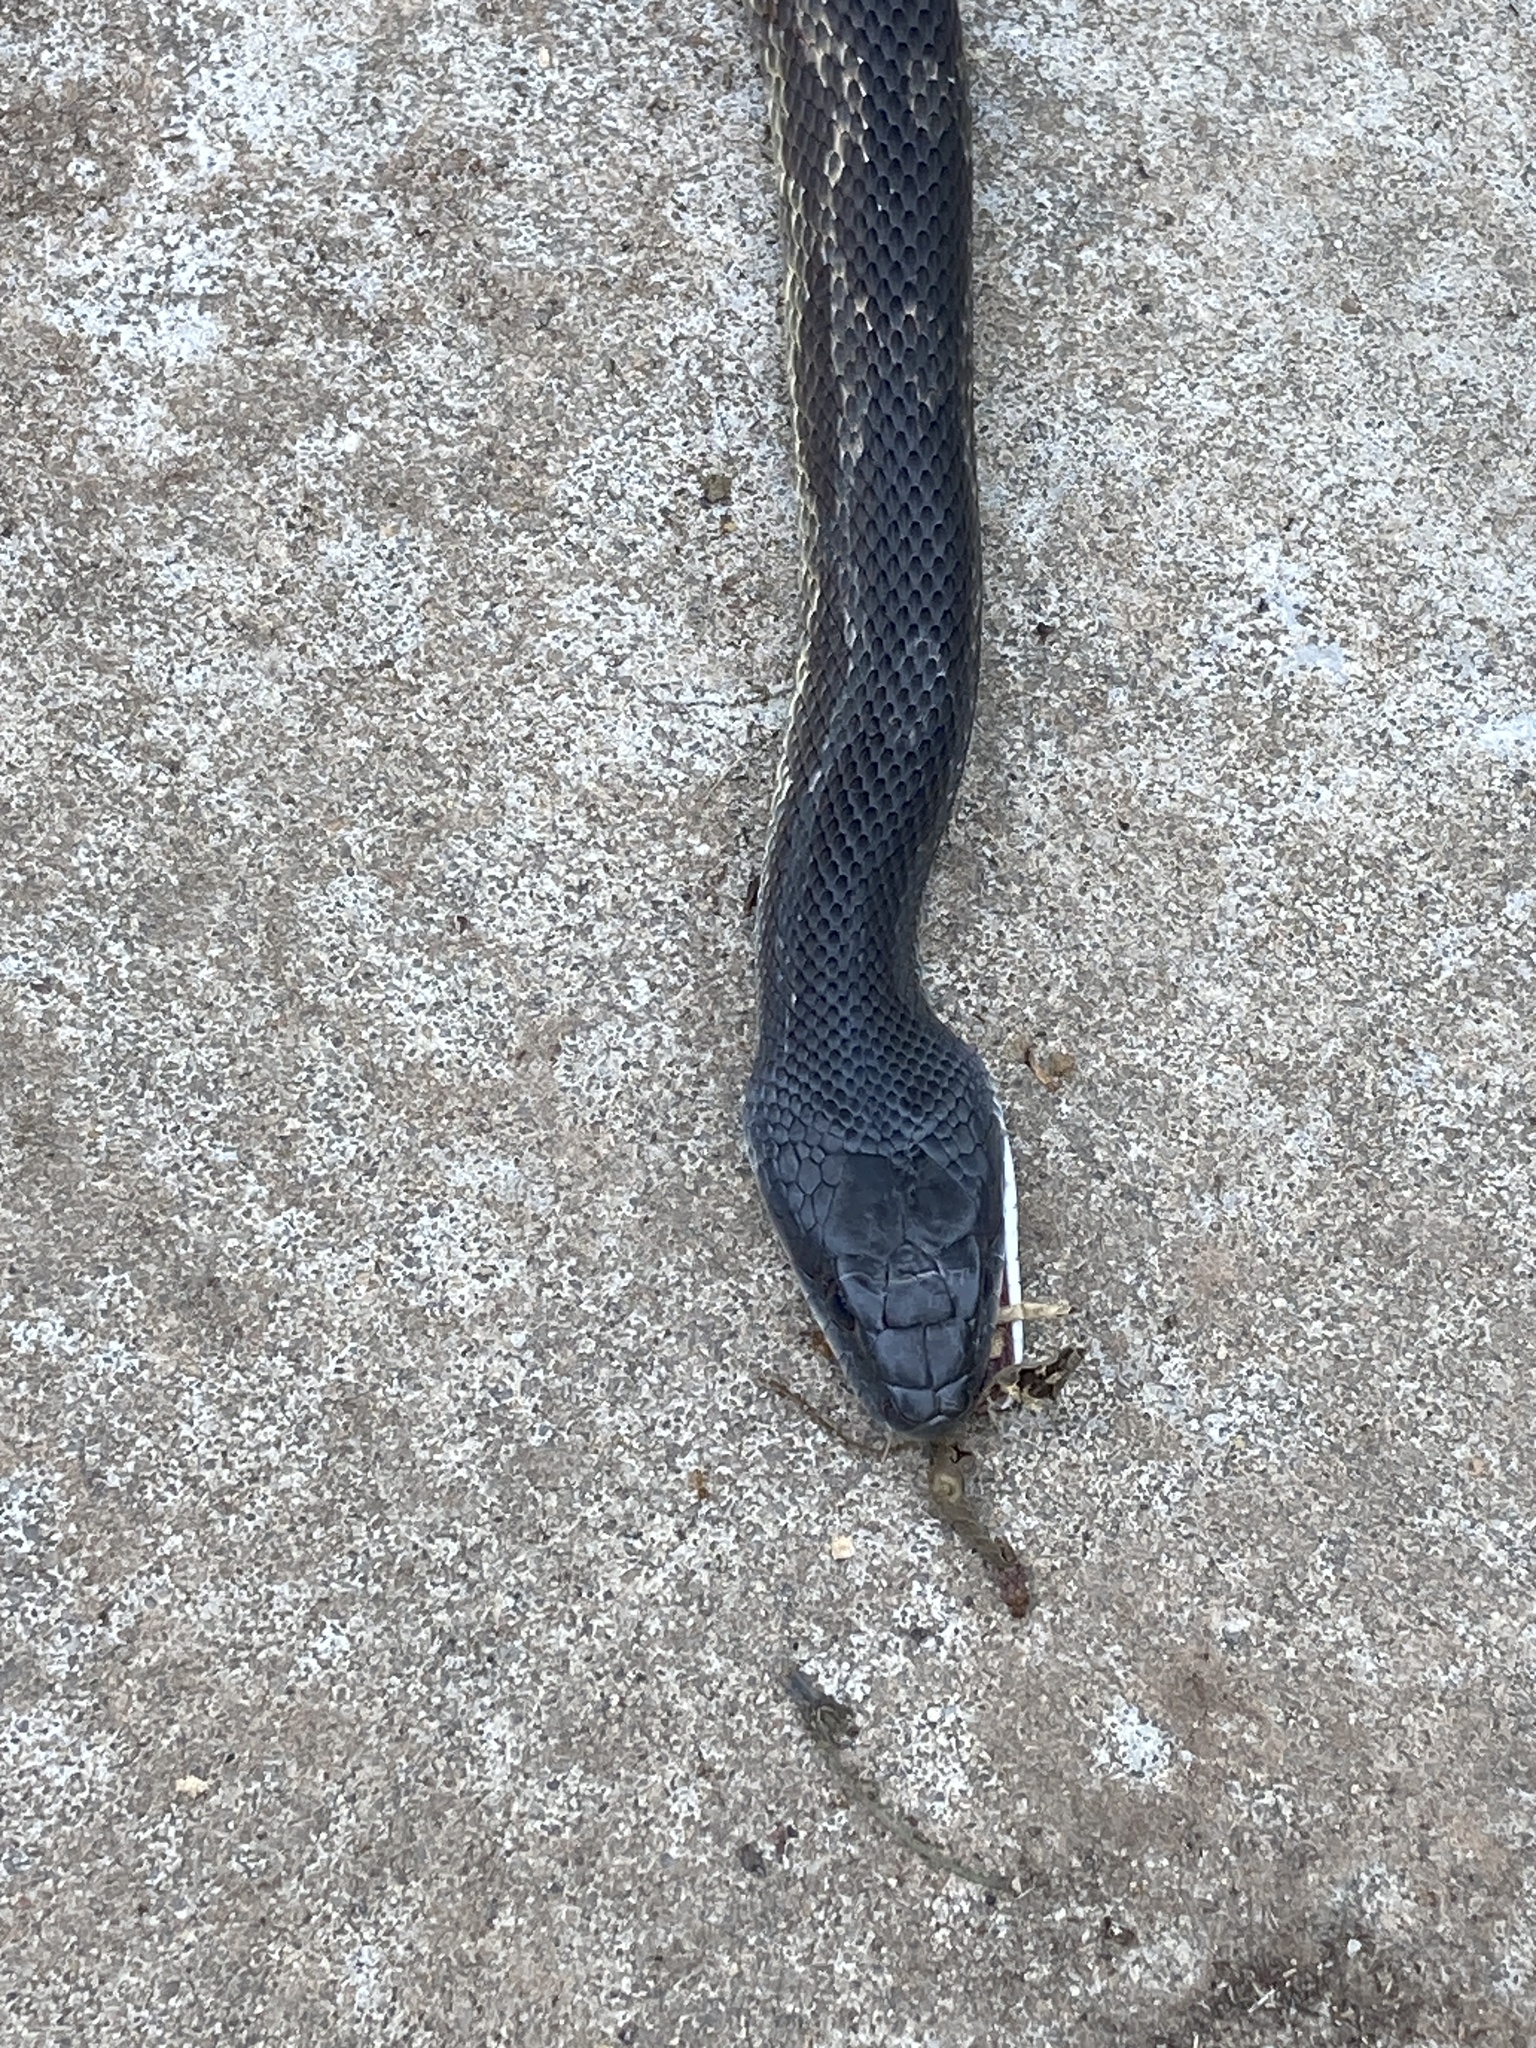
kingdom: Animalia
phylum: Chordata
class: Squamata
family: Colubridae
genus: Pantherophis
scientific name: Pantherophis obsoletus
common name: Black rat snake
